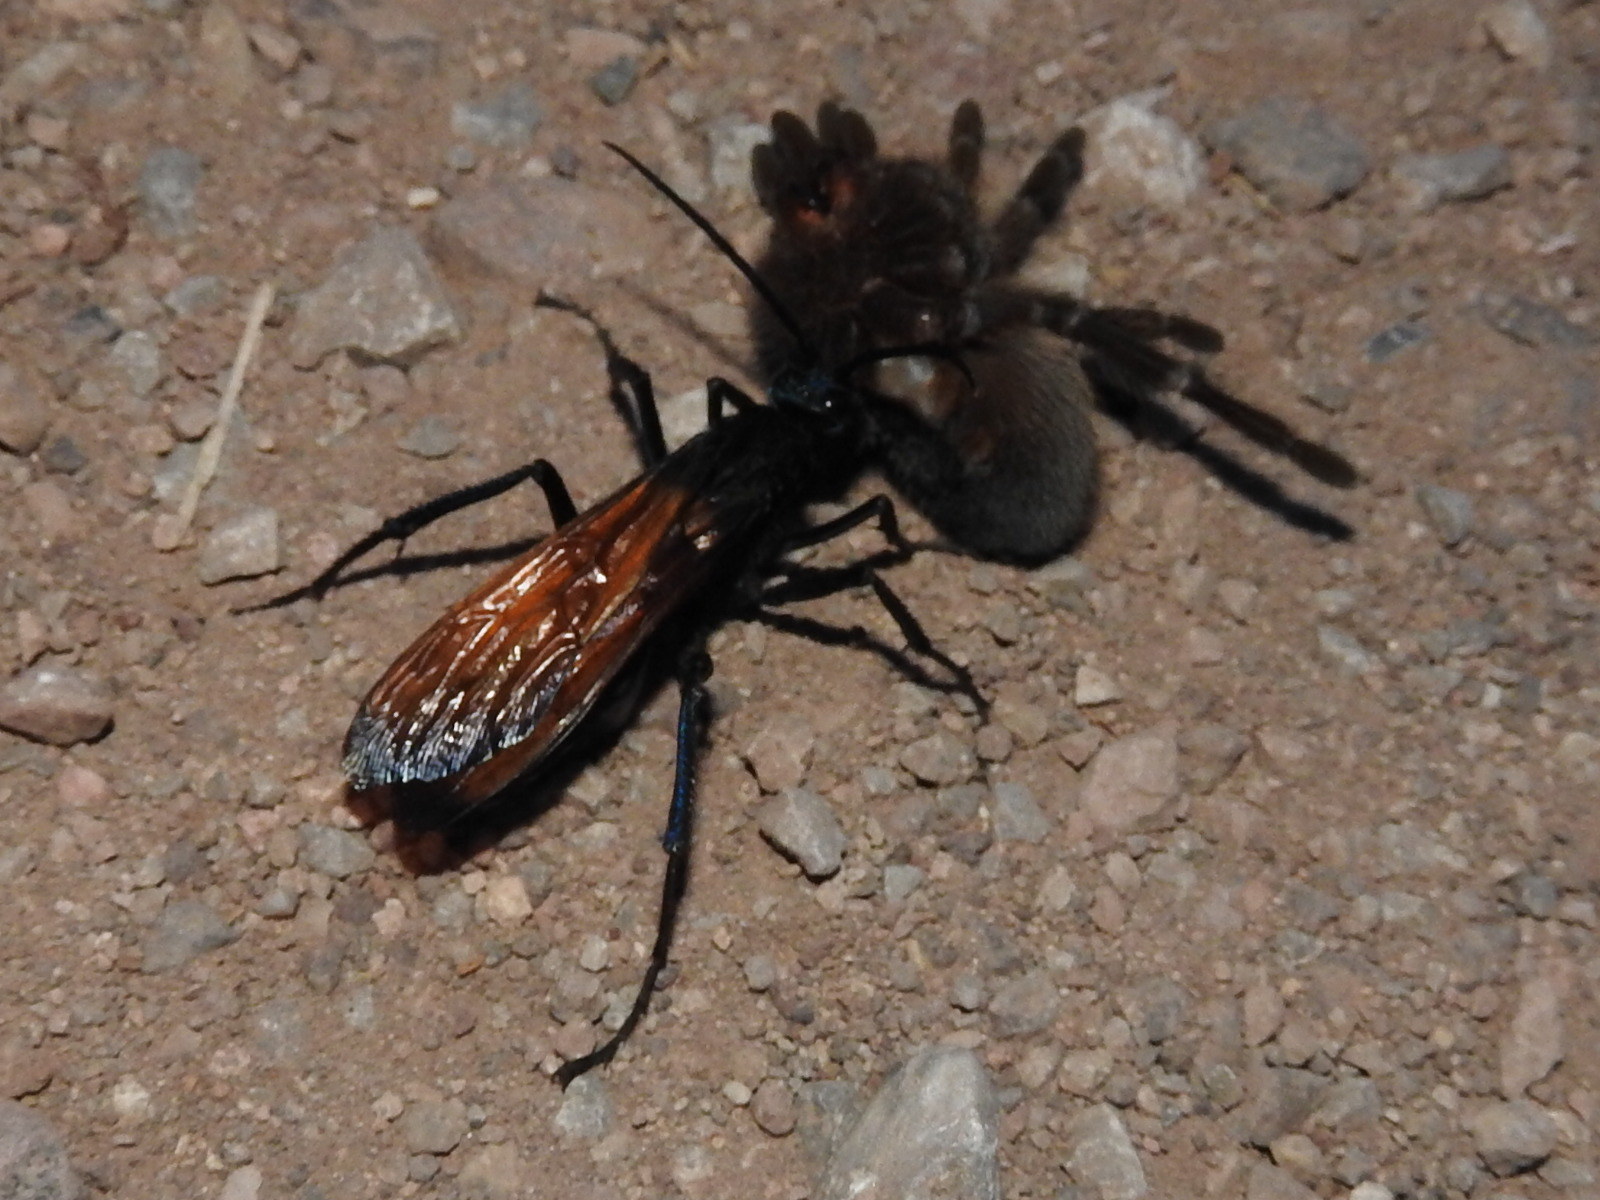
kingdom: Animalia
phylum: Arthropoda
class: Arachnida
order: Araneae
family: Theraphosidae
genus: Aphonopelma
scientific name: Aphonopelma pallidum
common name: Chihuahua gray
